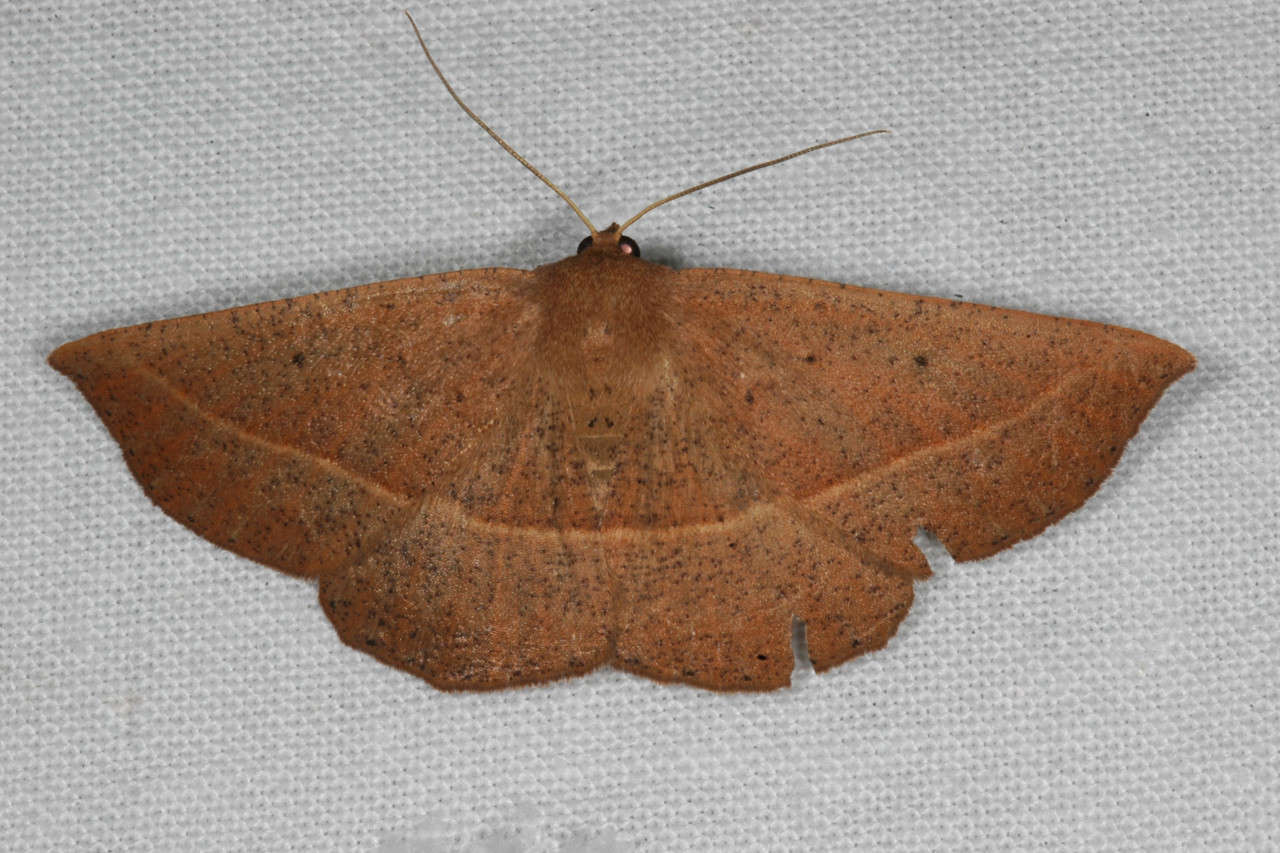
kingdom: Animalia
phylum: Arthropoda
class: Insecta
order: Lepidoptera
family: Geometridae
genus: Idiodes
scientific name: Idiodes apicata
